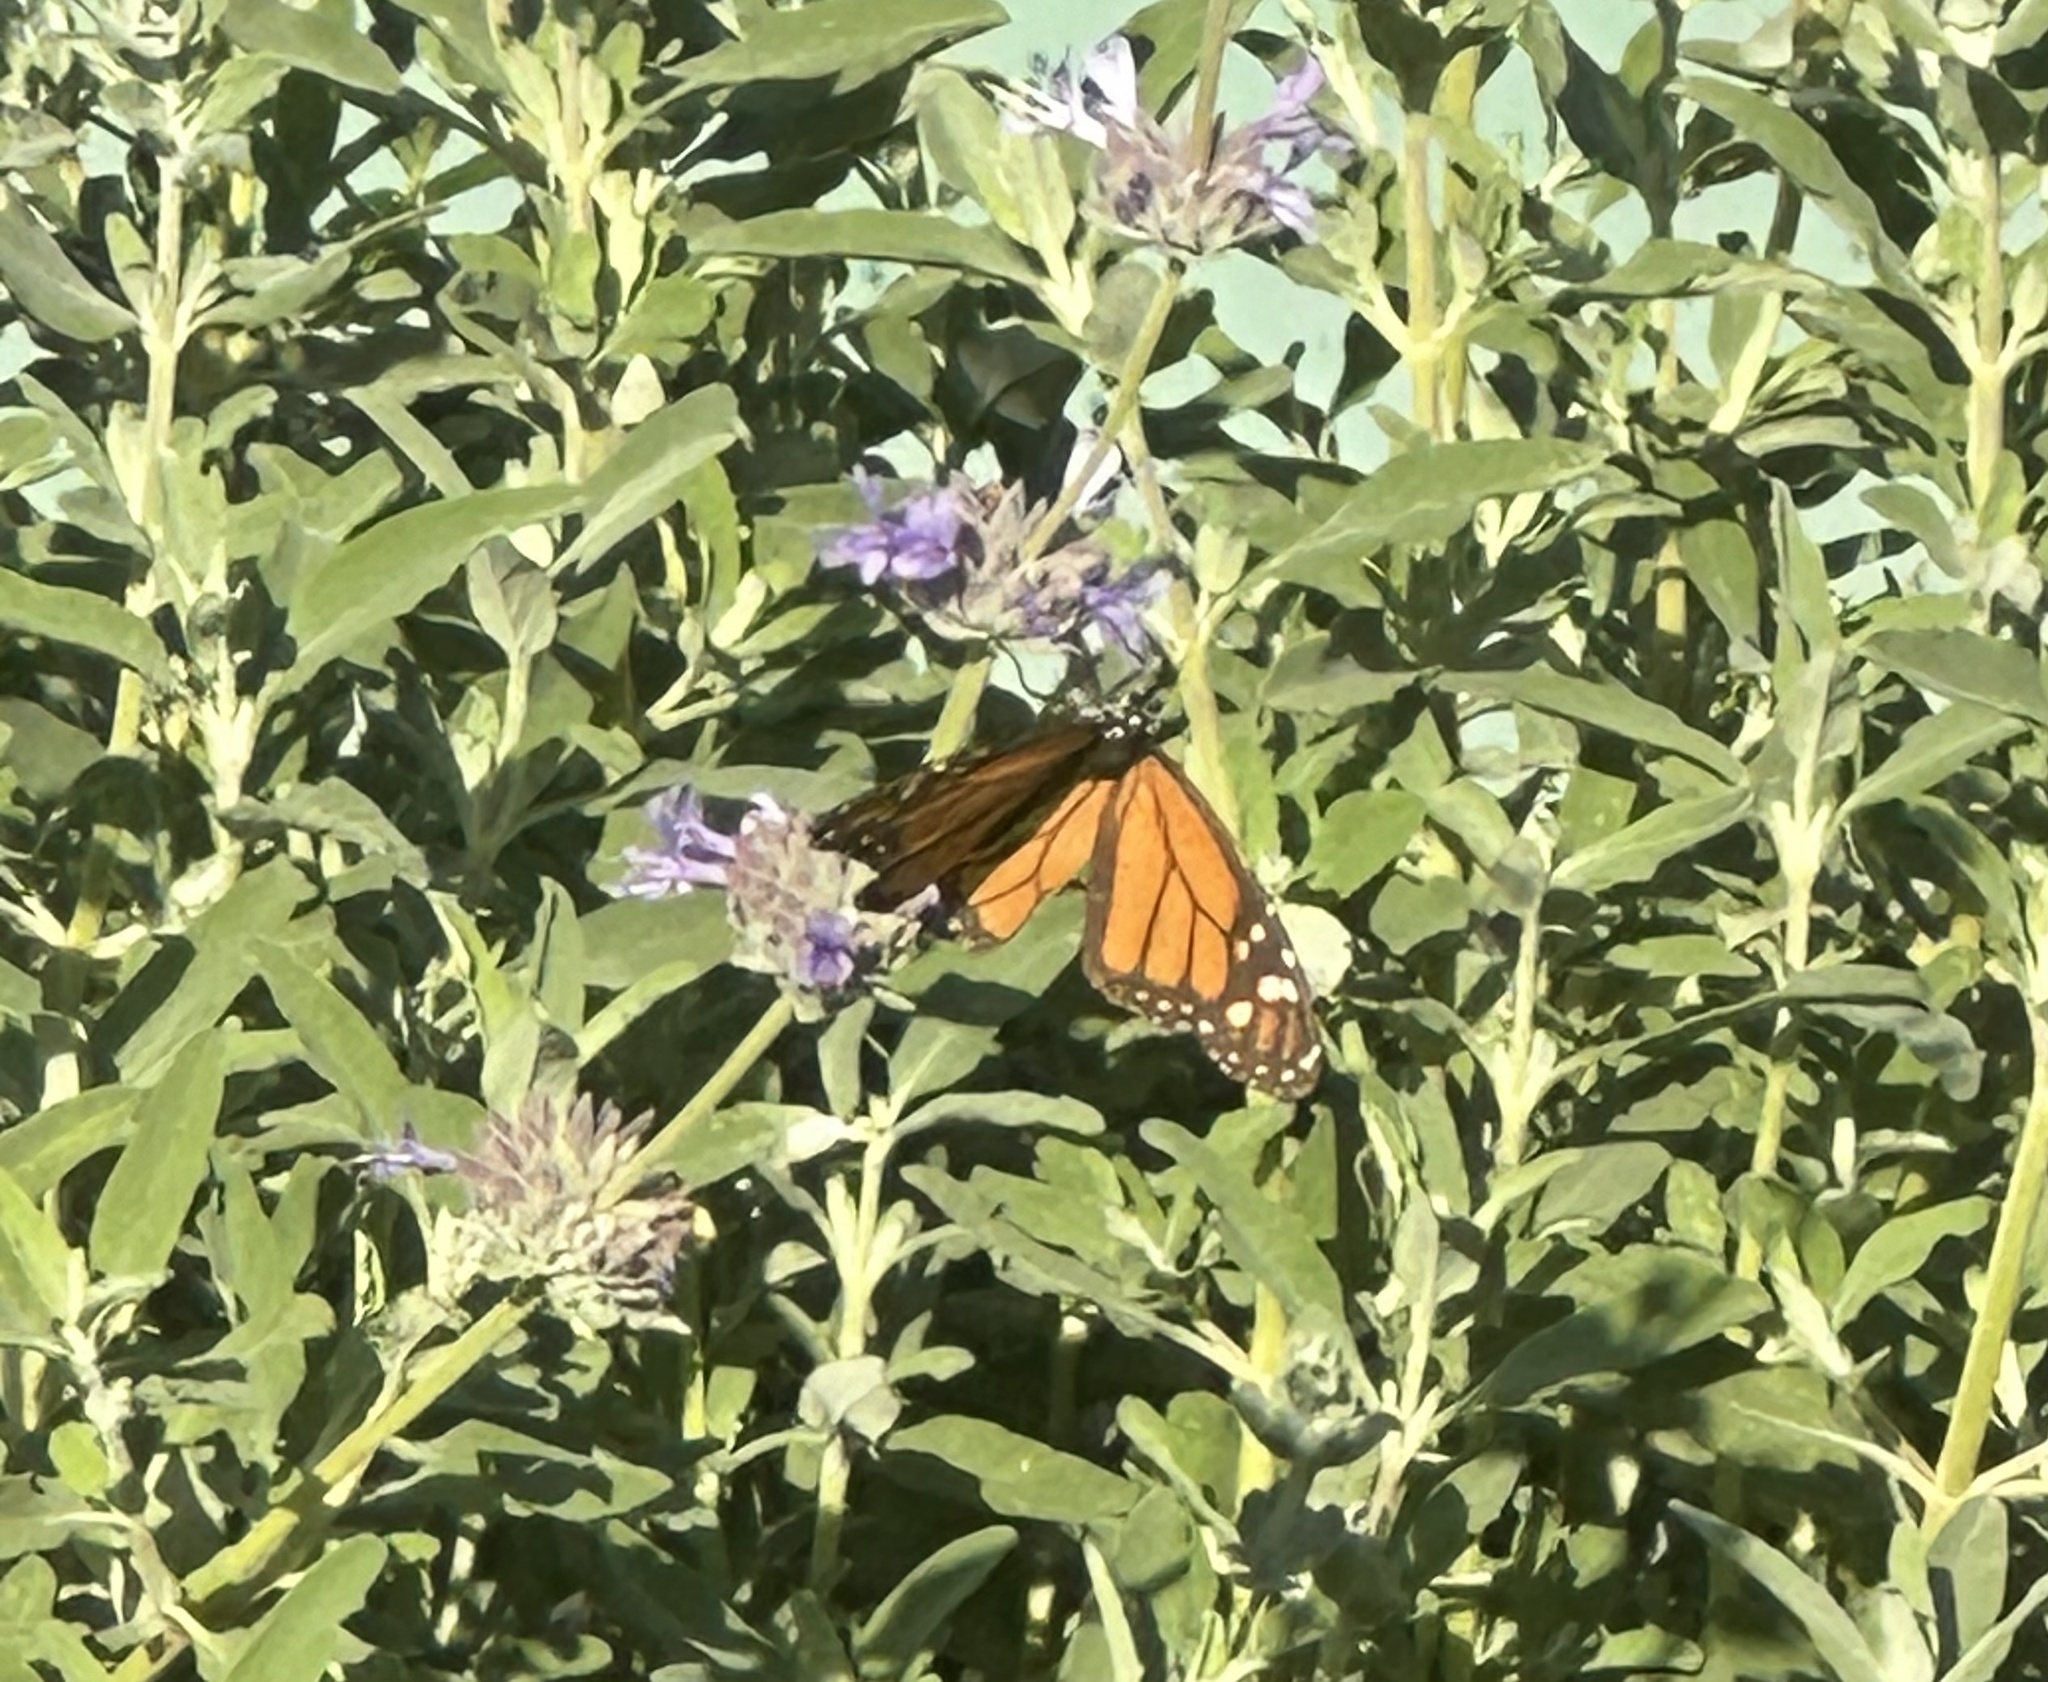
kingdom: Animalia
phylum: Arthropoda
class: Insecta
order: Lepidoptera
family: Nymphalidae
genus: Danaus
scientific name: Danaus plexippus
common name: Monarch
